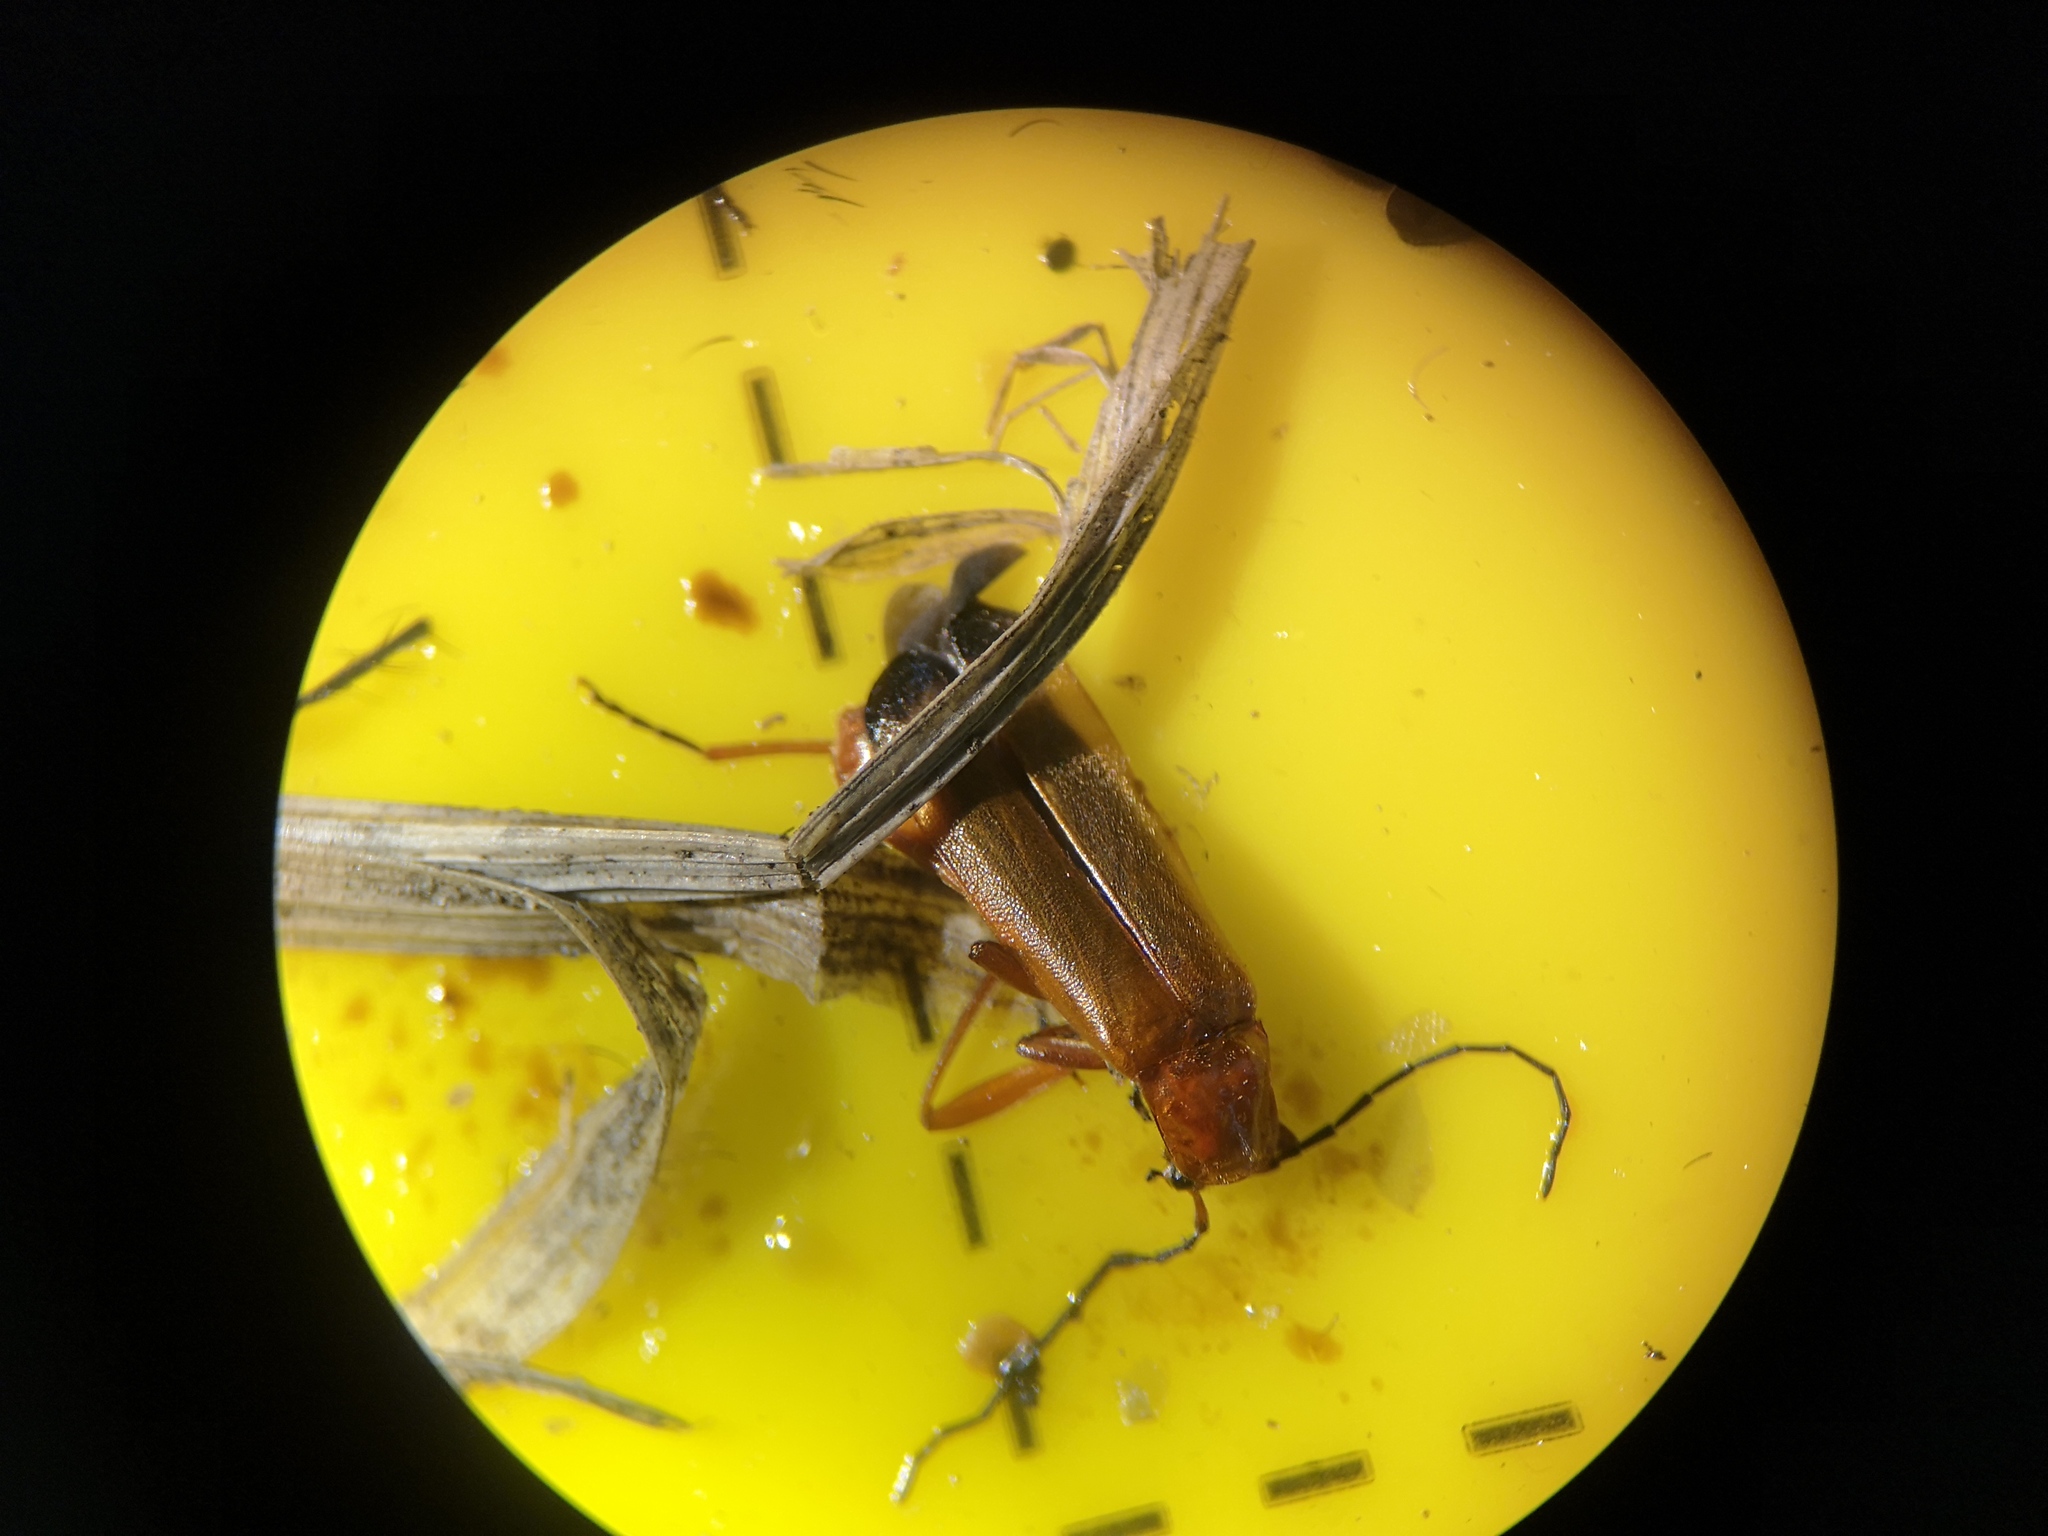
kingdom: Animalia
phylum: Arthropoda
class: Insecta
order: Coleoptera
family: Cantharidae
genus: Rhagonycha
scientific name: Rhagonycha fulva
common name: Common red soldier beetle
